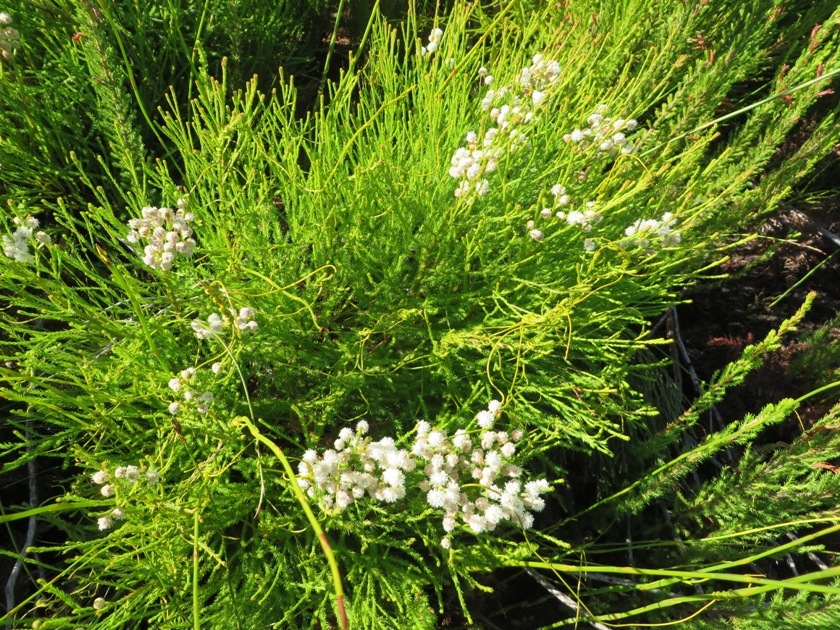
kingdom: Plantae
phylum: Tracheophyta
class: Magnoliopsida
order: Bruniales
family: Bruniaceae
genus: Brunia
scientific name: Brunia paleacea
